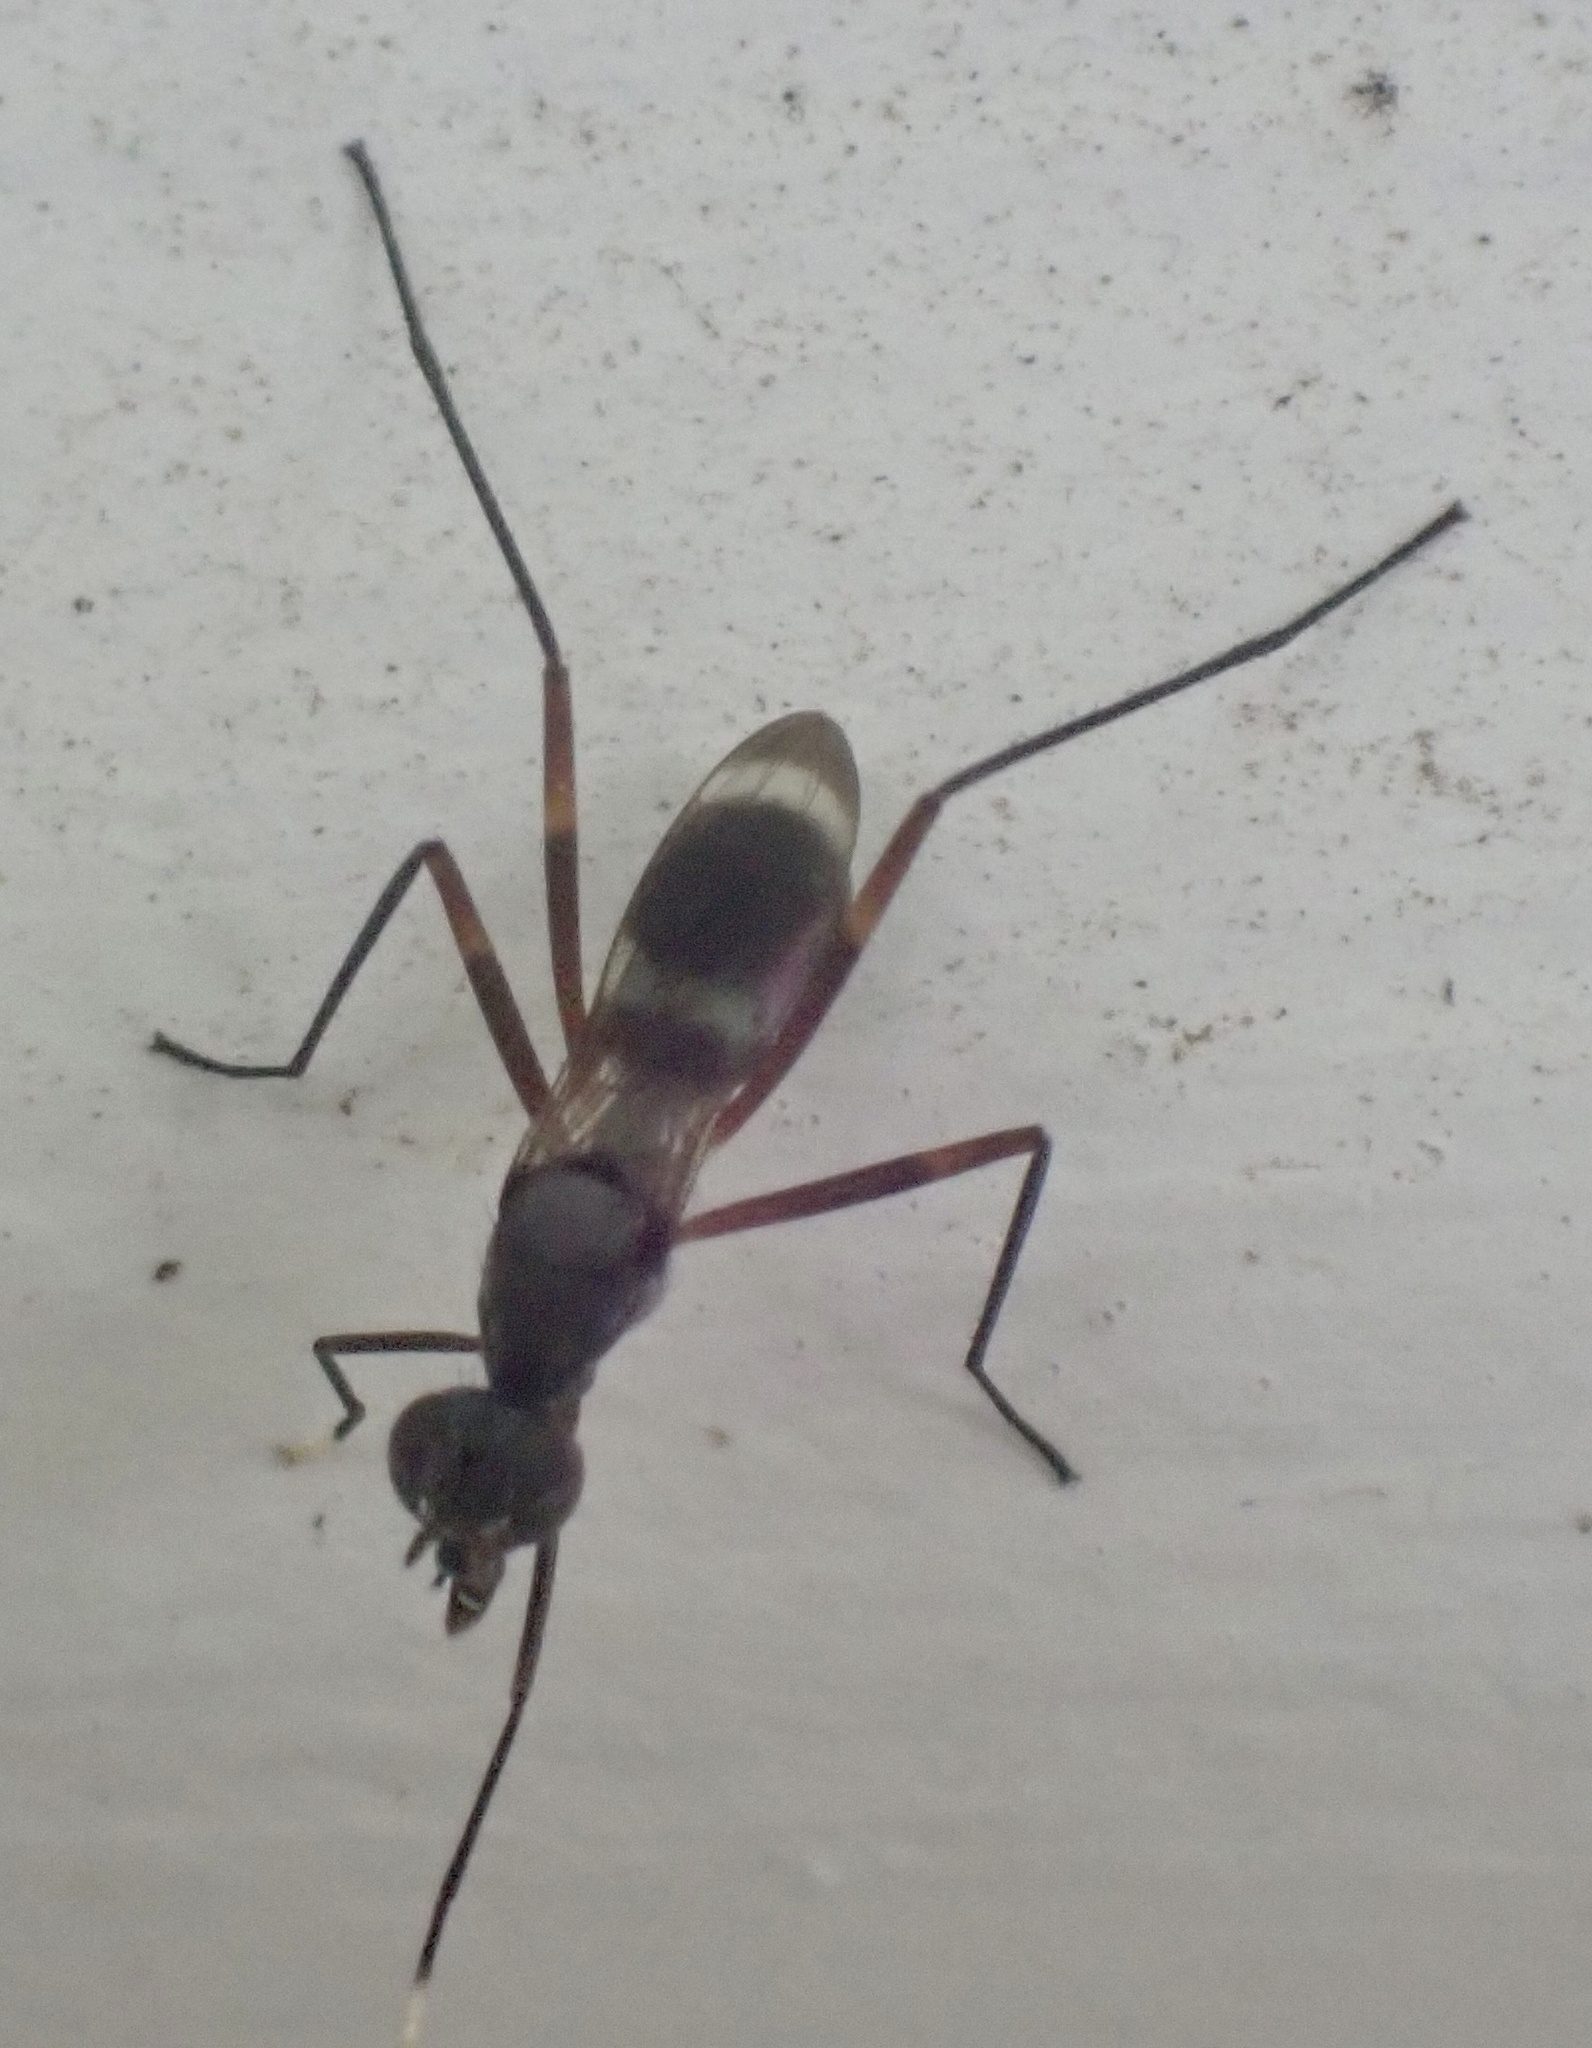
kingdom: Animalia
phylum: Arthropoda
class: Insecta
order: Diptera
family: Micropezidae
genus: Taeniaptera
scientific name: Taeniaptera trivittata
